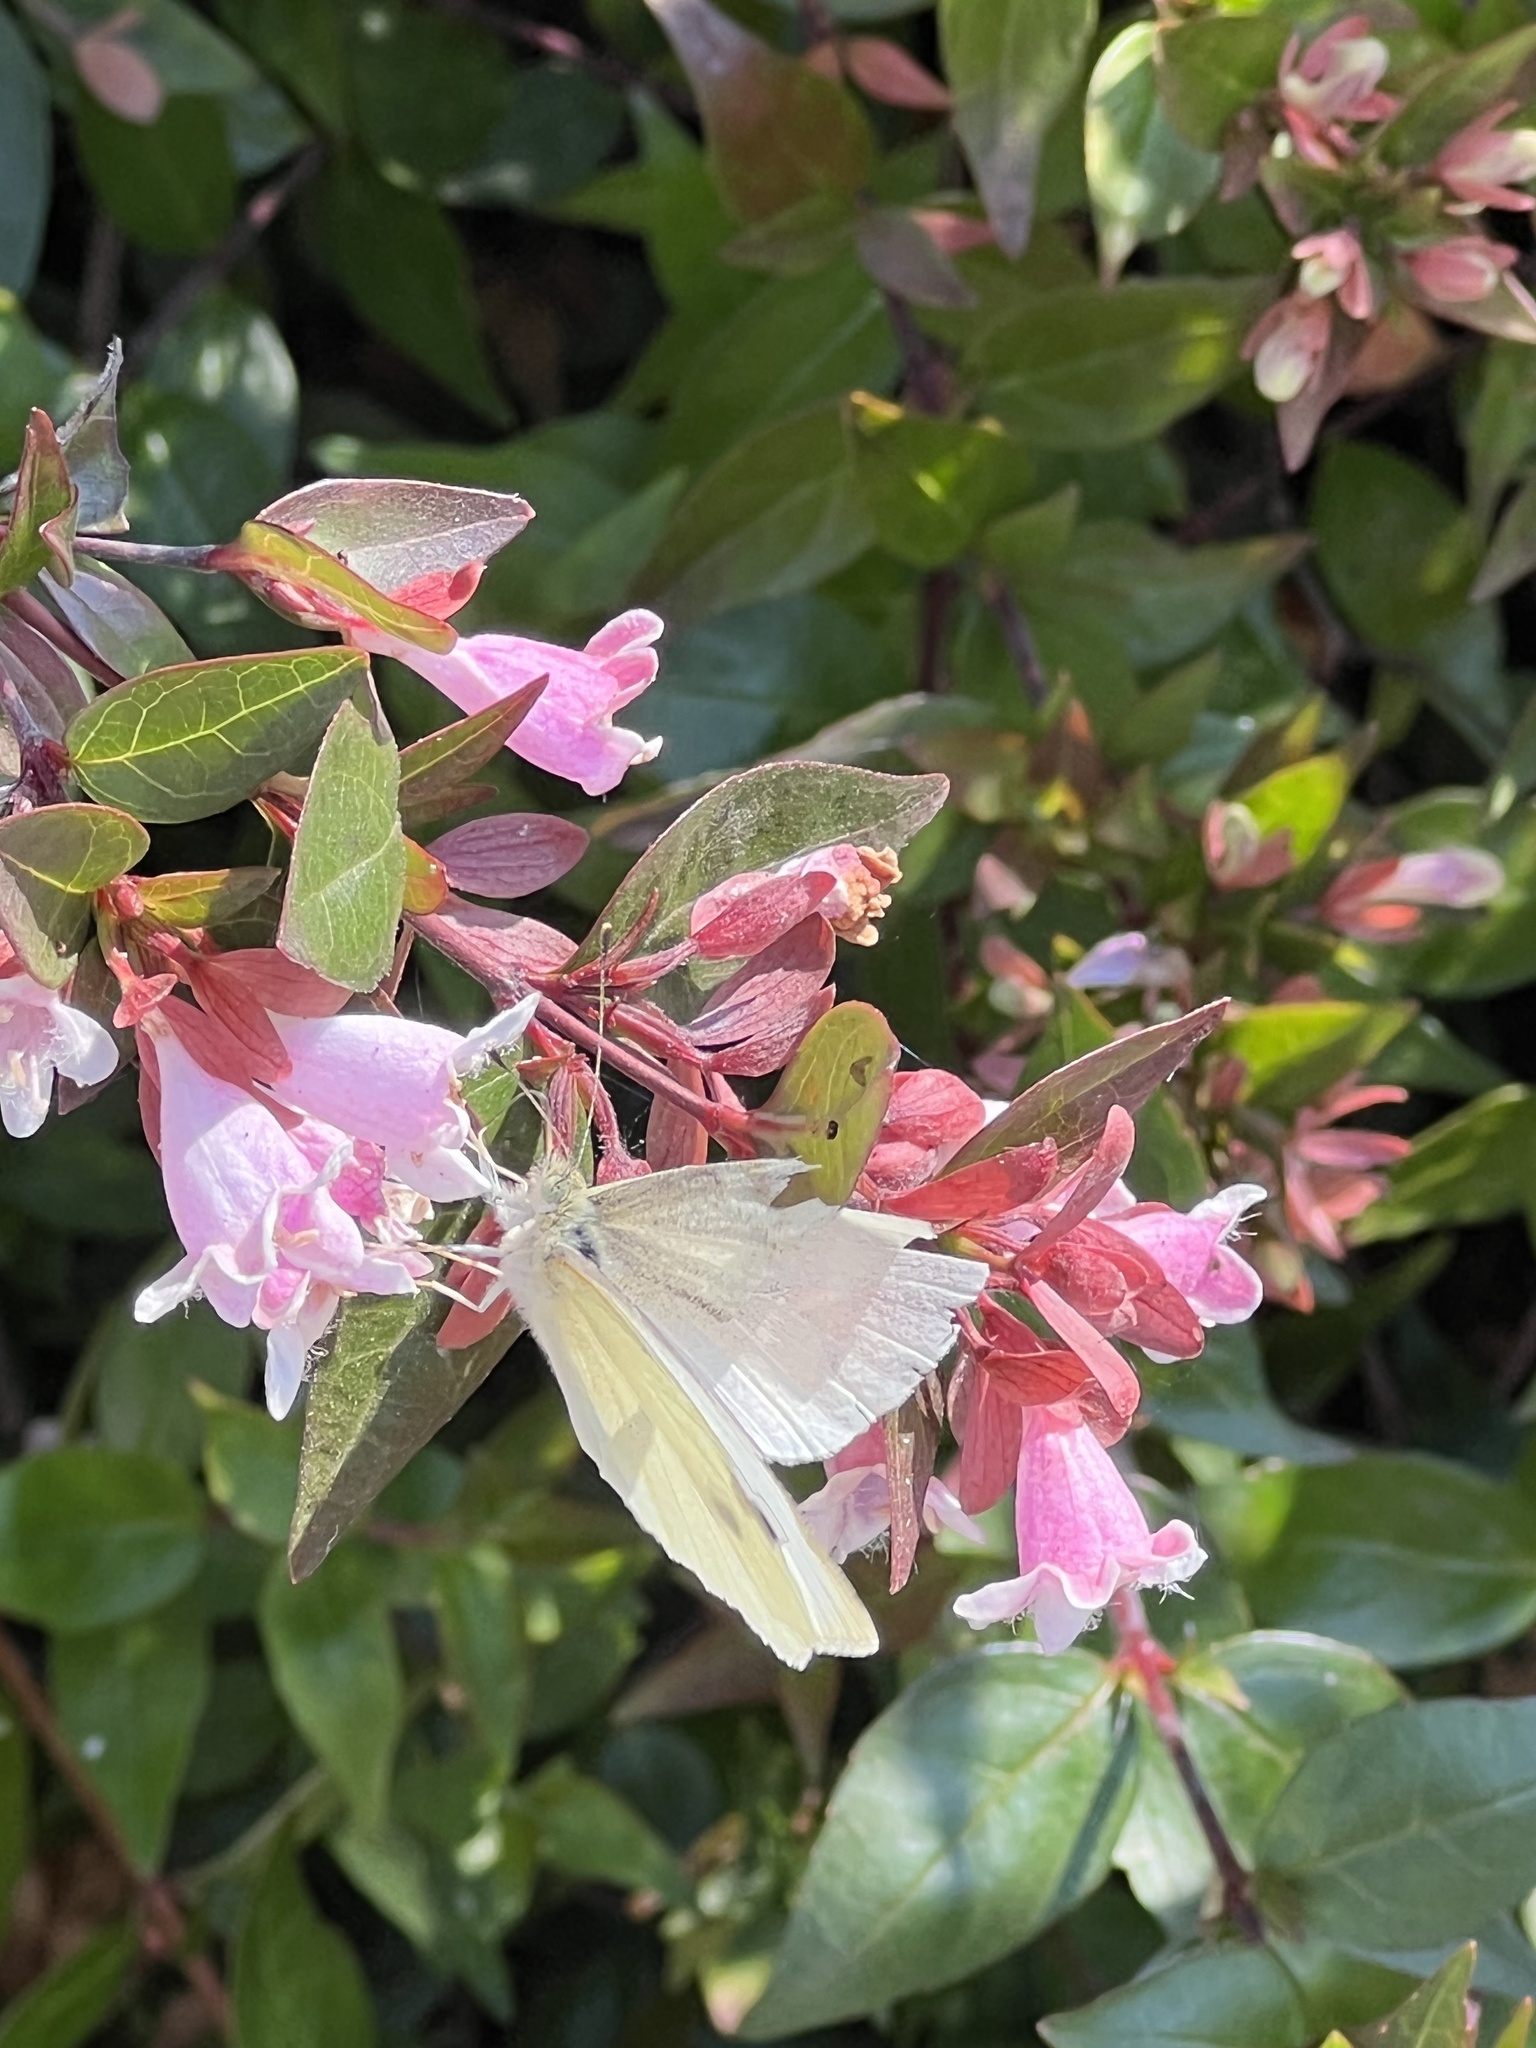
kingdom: Animalia
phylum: Arthropoda
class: Insecta
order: Lepidoptera
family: Pieridae
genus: Pieris
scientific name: Pieris rapae
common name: Small white
